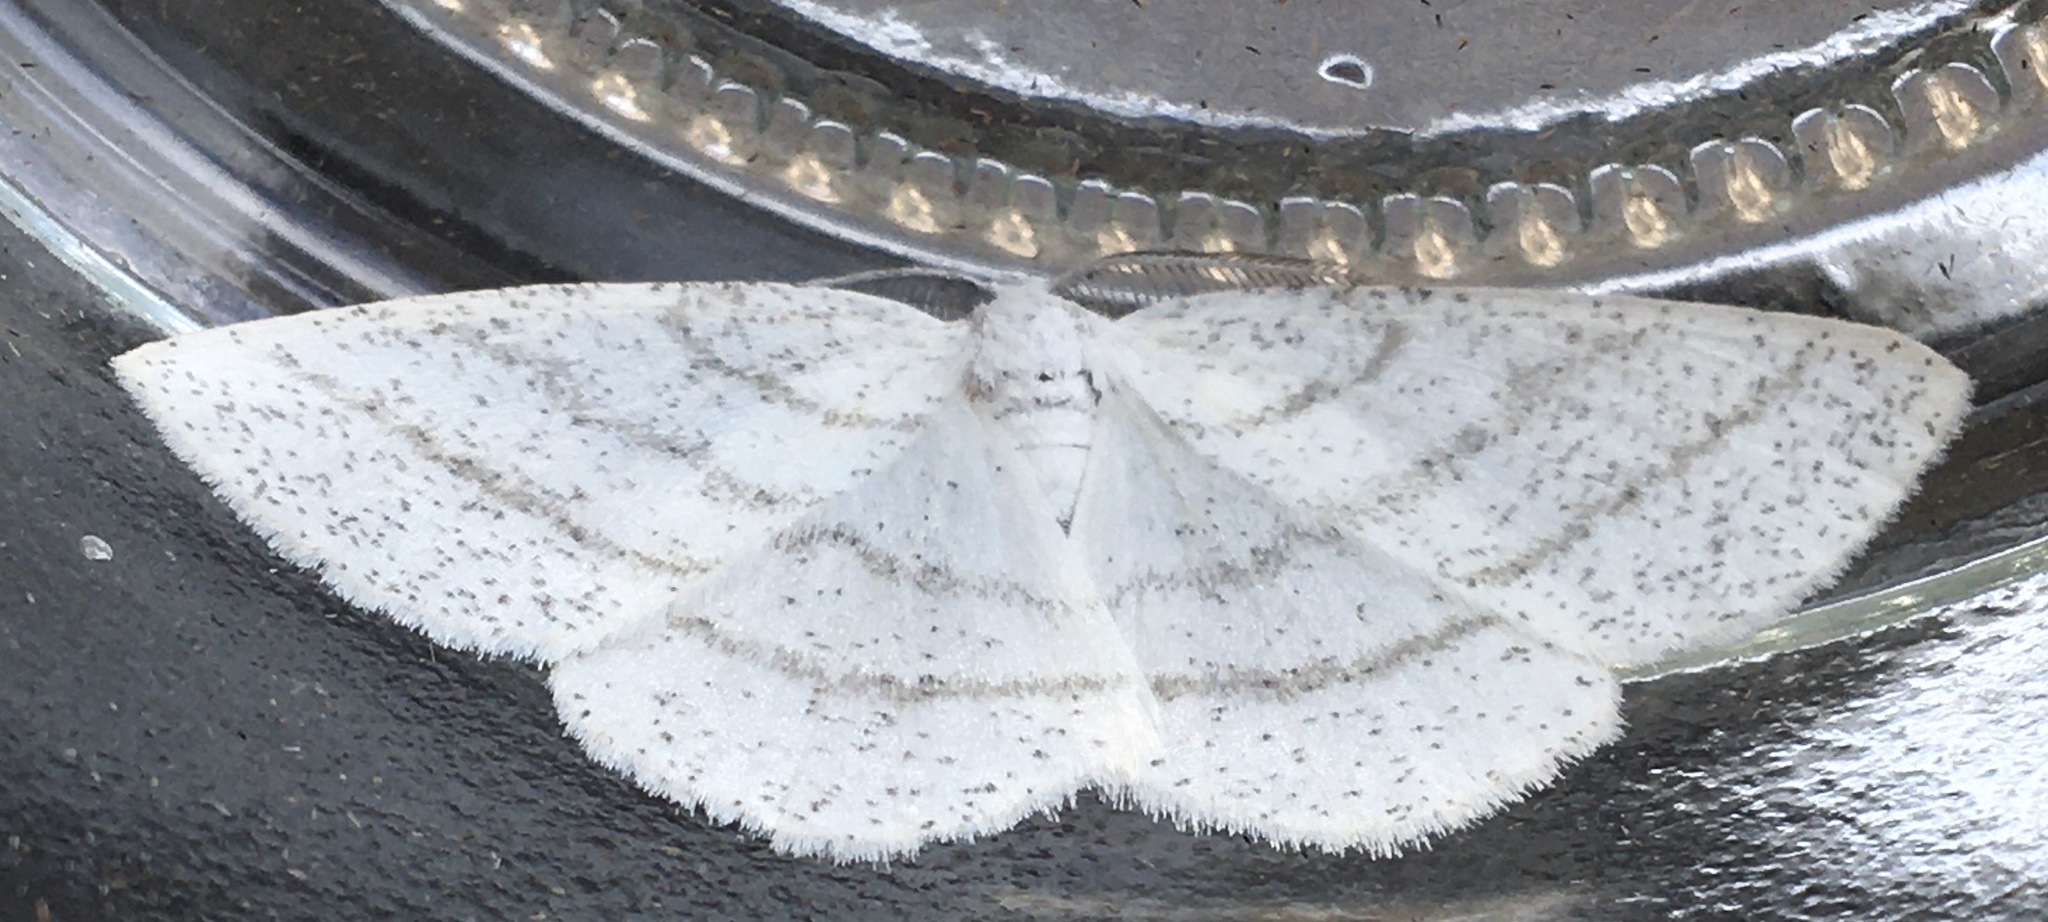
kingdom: Animalia
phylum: Arthropoda
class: Insecta
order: Lepidoptera
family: Geometridae
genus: Cabera
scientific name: Cabera pusaria
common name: Common white wave
